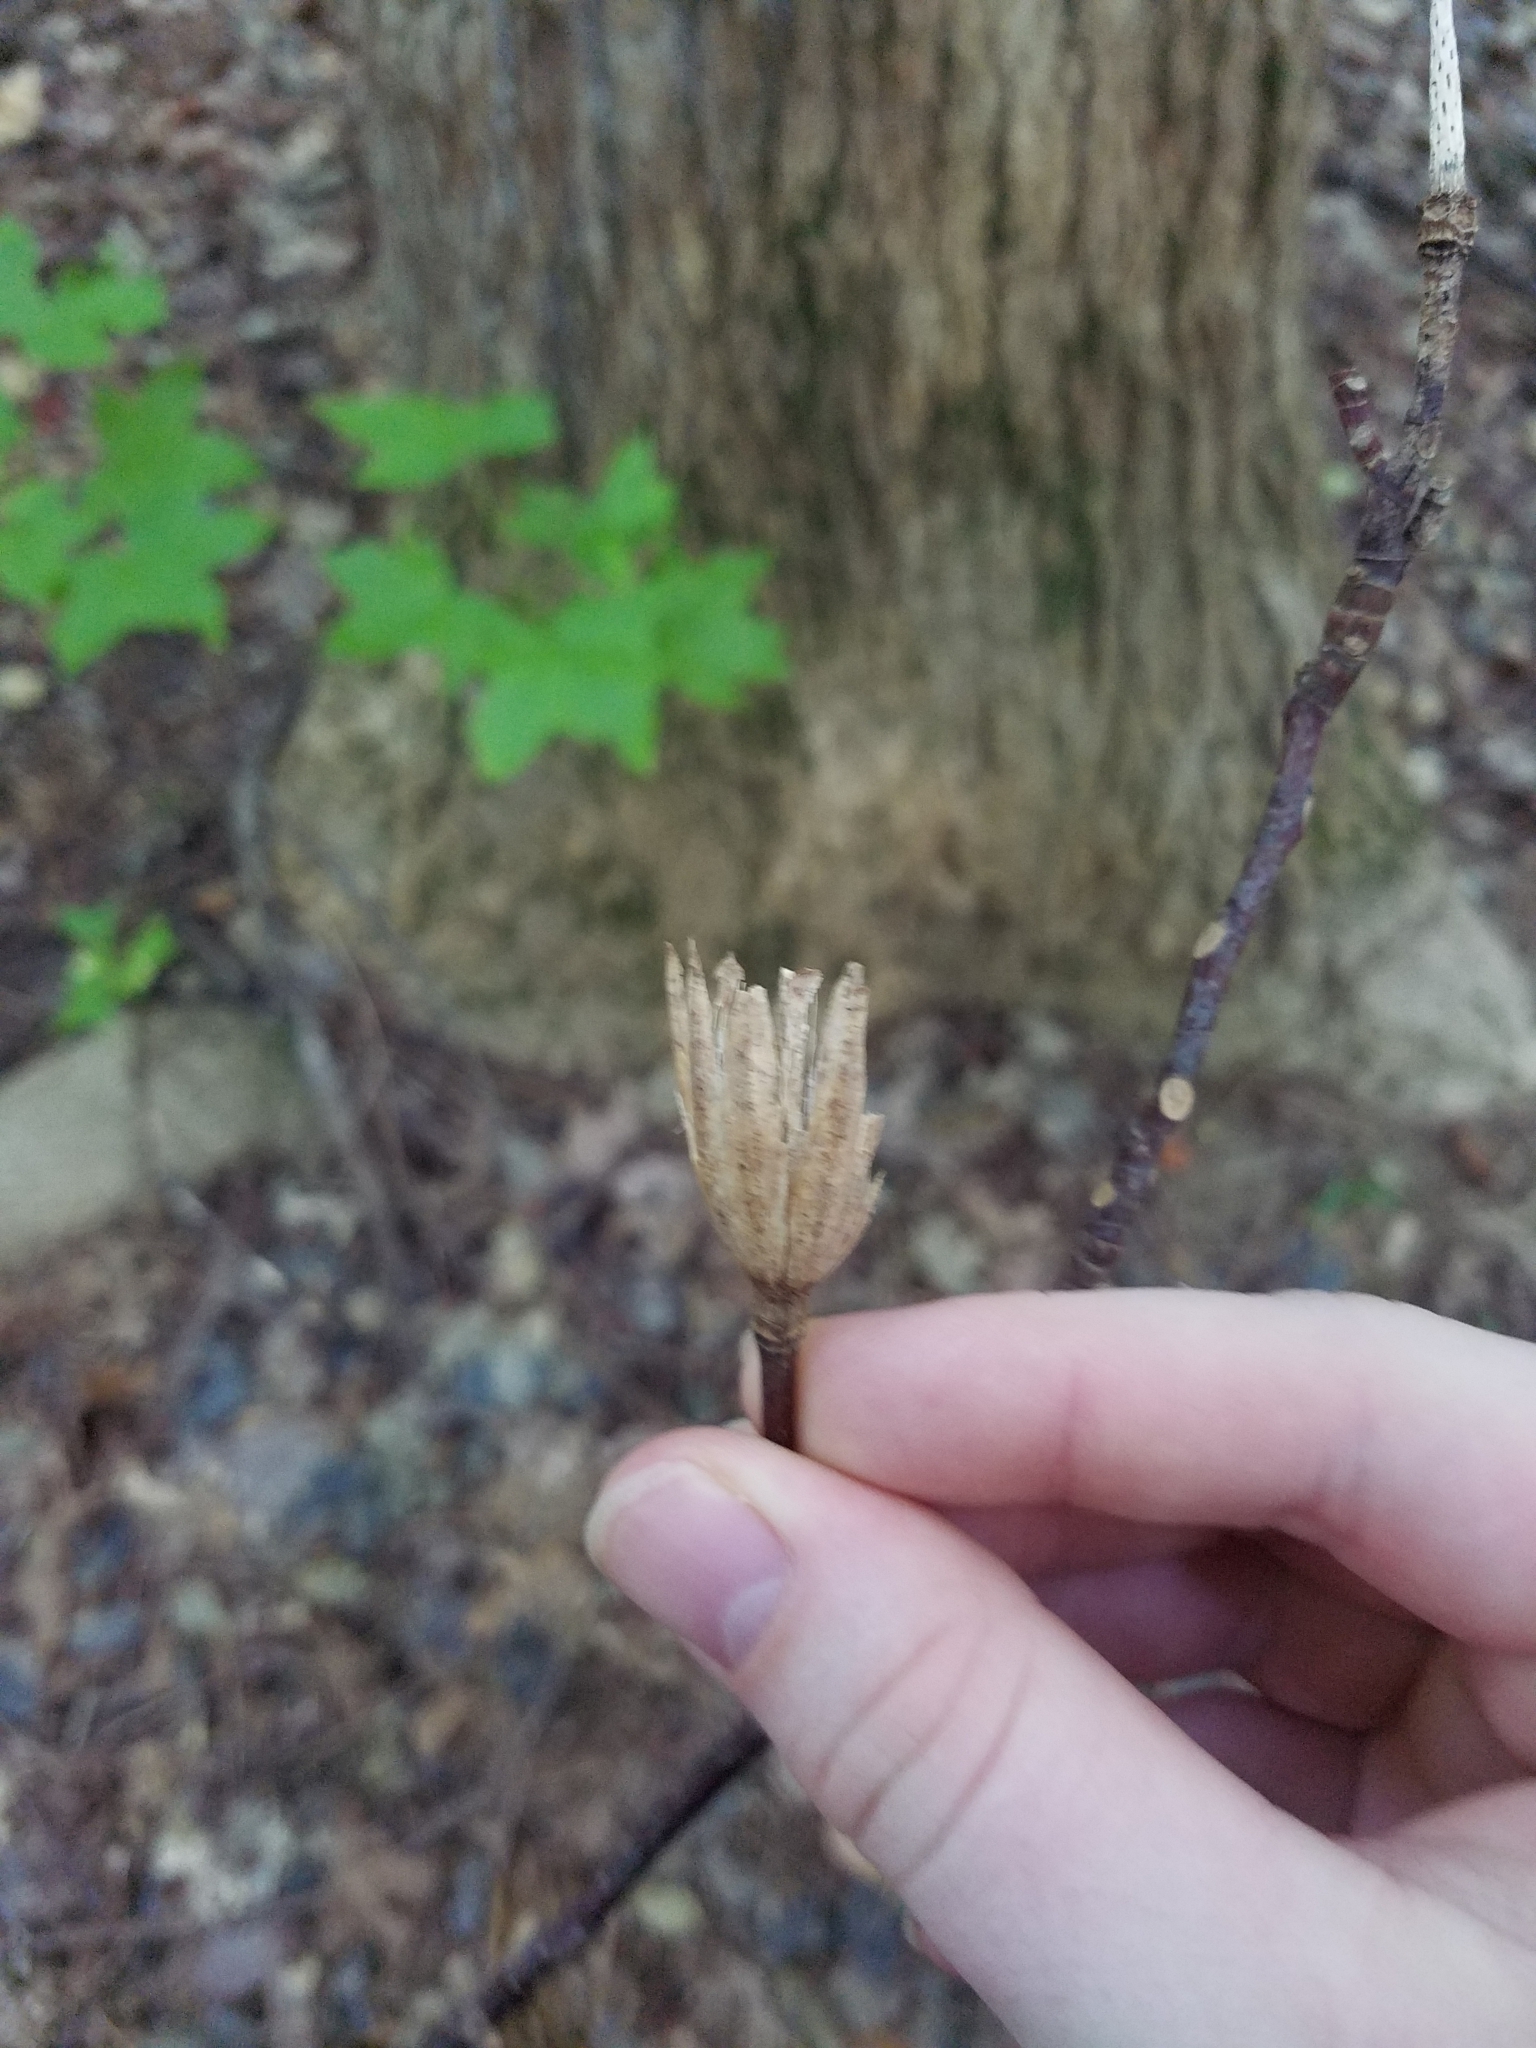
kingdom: Plantae
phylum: Tracheophyta
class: Magnoliopsida
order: Magnoliales
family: Magnoliaceae
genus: Liriodendron
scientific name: Liriodendron tulipifera
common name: Tulip tree
